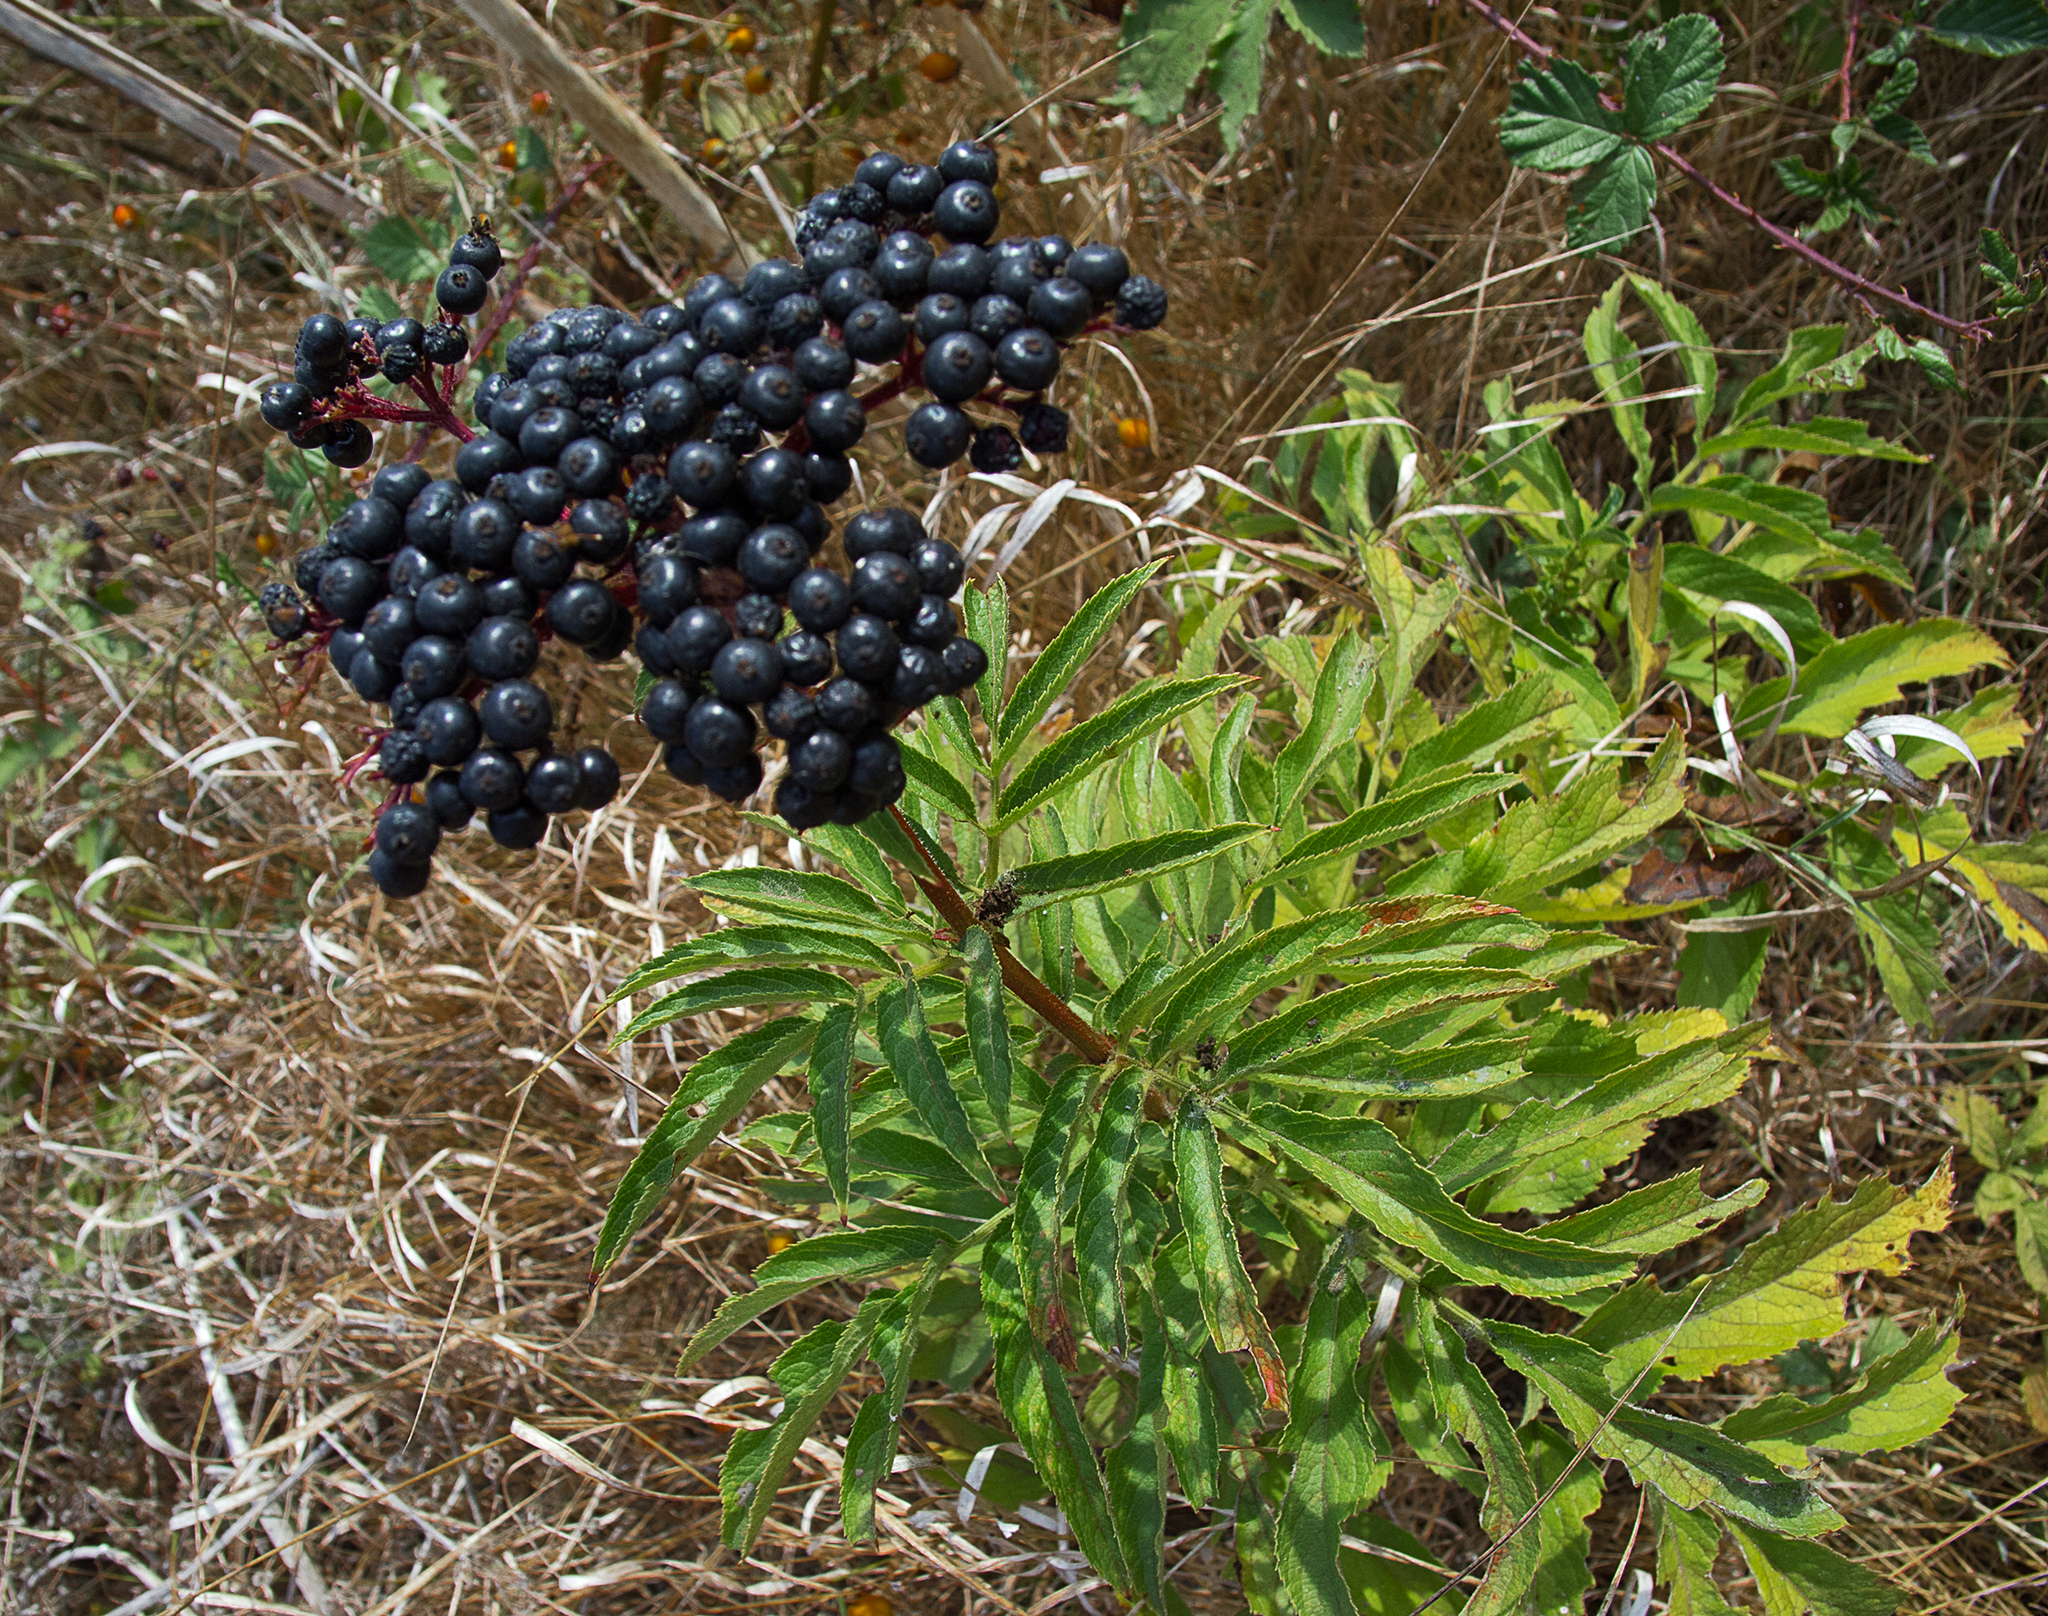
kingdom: Plantae
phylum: Tracheophyta
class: Magnoliopsida
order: Dipsacales
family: Viburnaceae
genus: Sambucus
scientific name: Sambucus ebulus
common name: Dwarf elder
